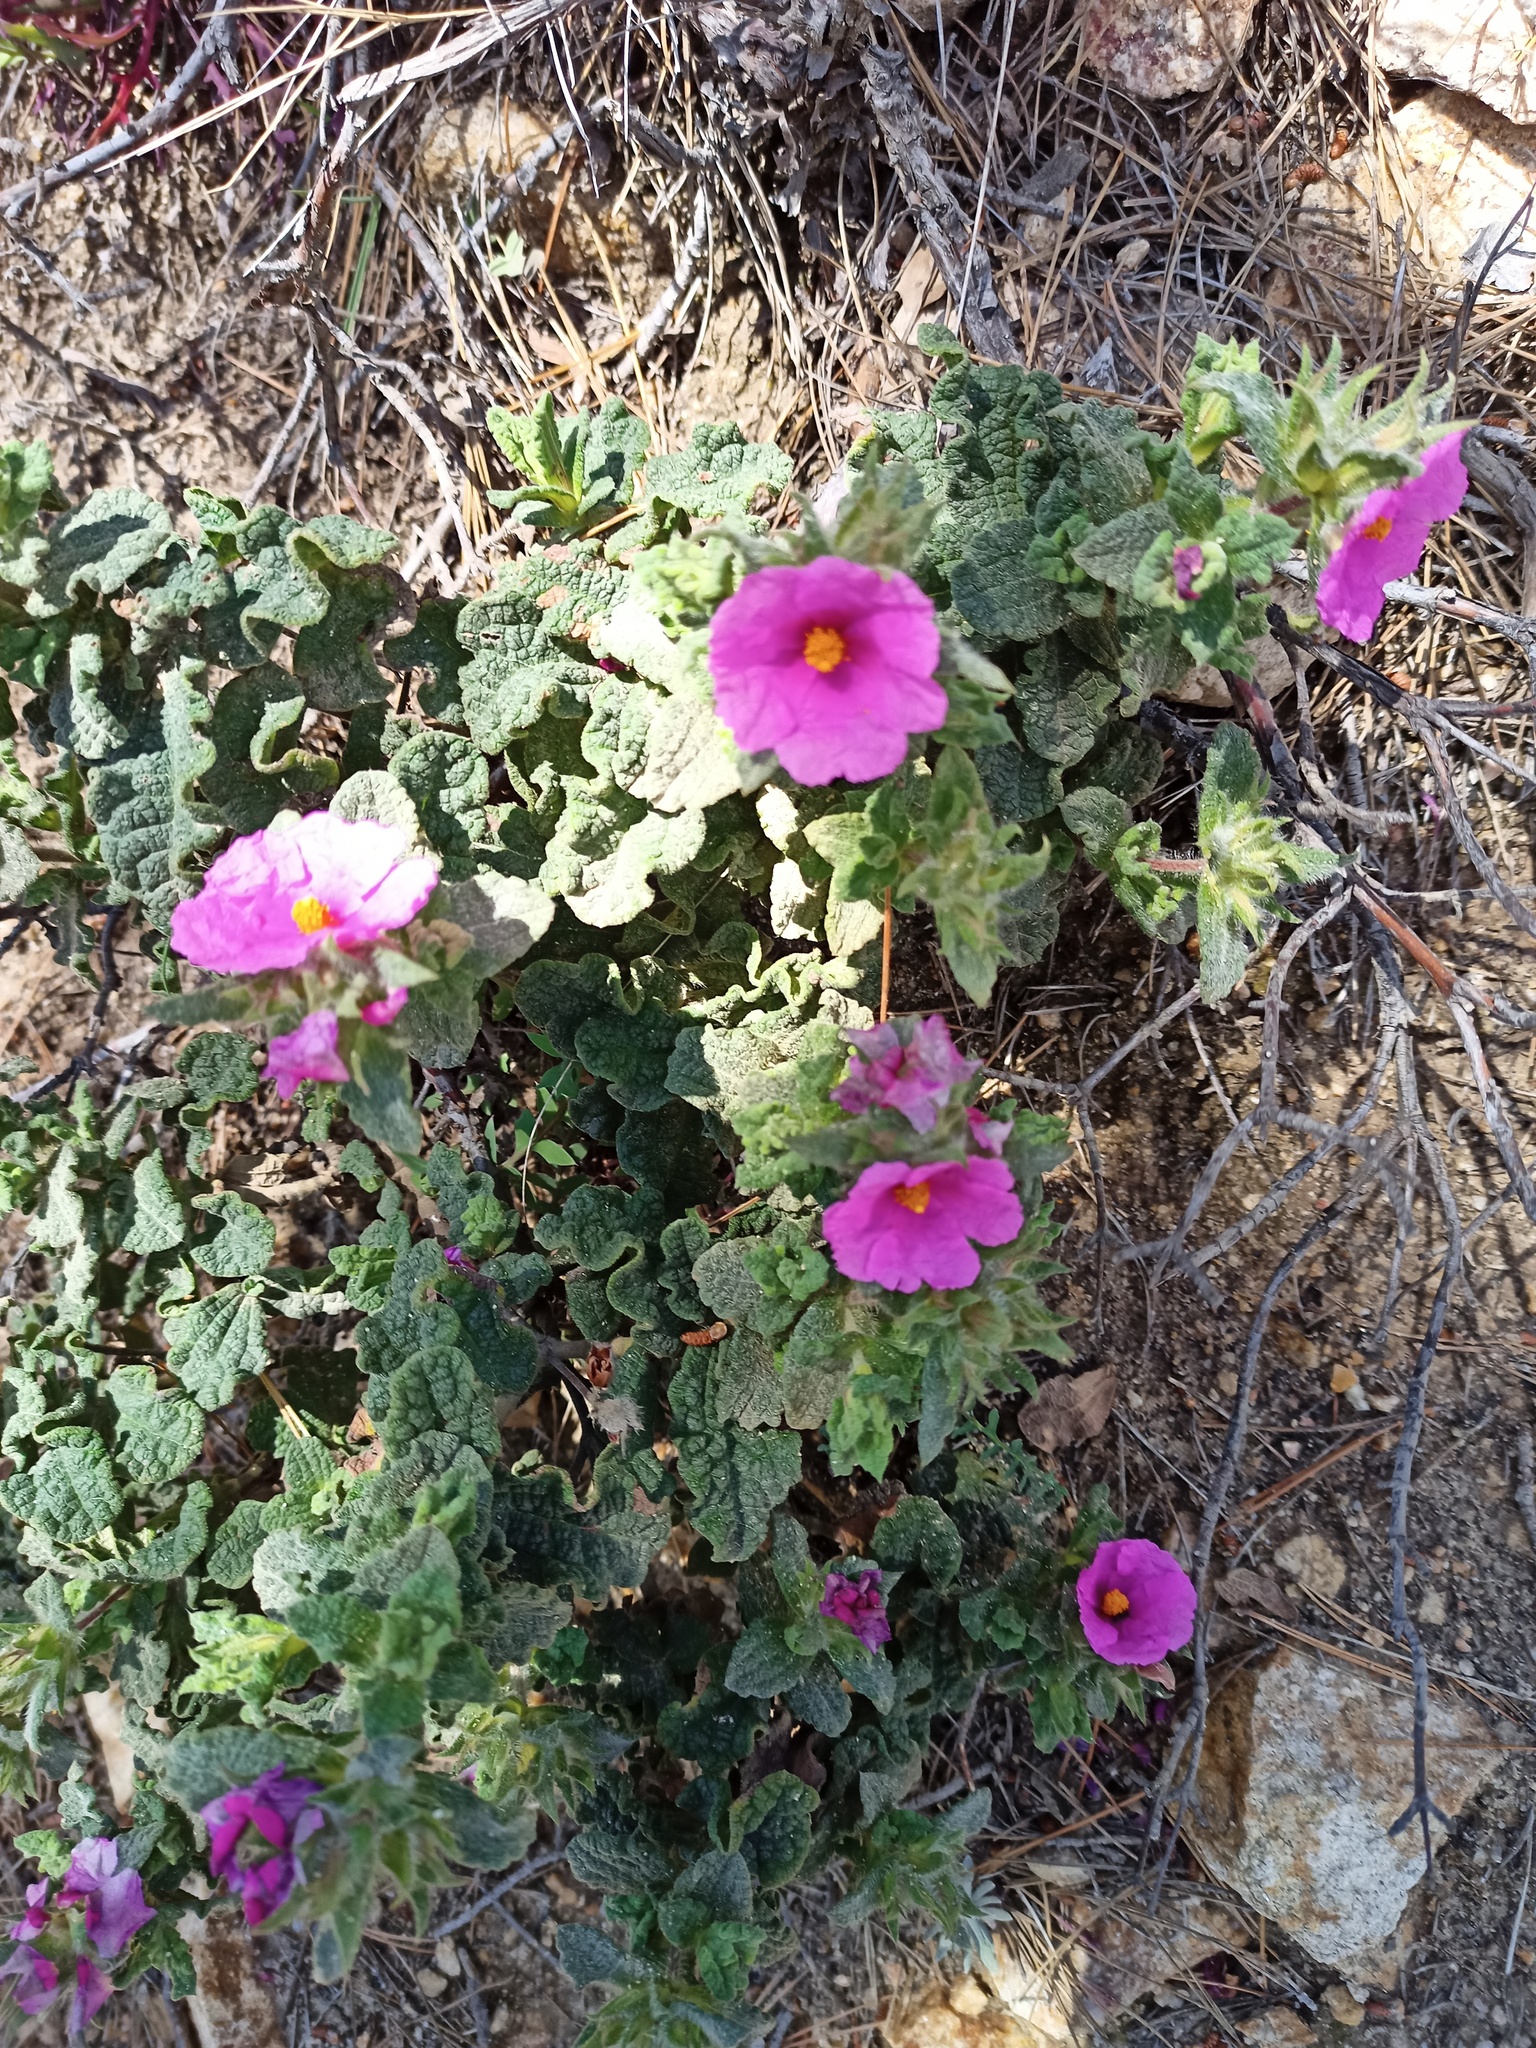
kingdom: Plantae
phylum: Tracheophyta
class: Magnoliopsida
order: Malvales
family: Cistaceae
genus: Cistus
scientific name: Cistus crispus
